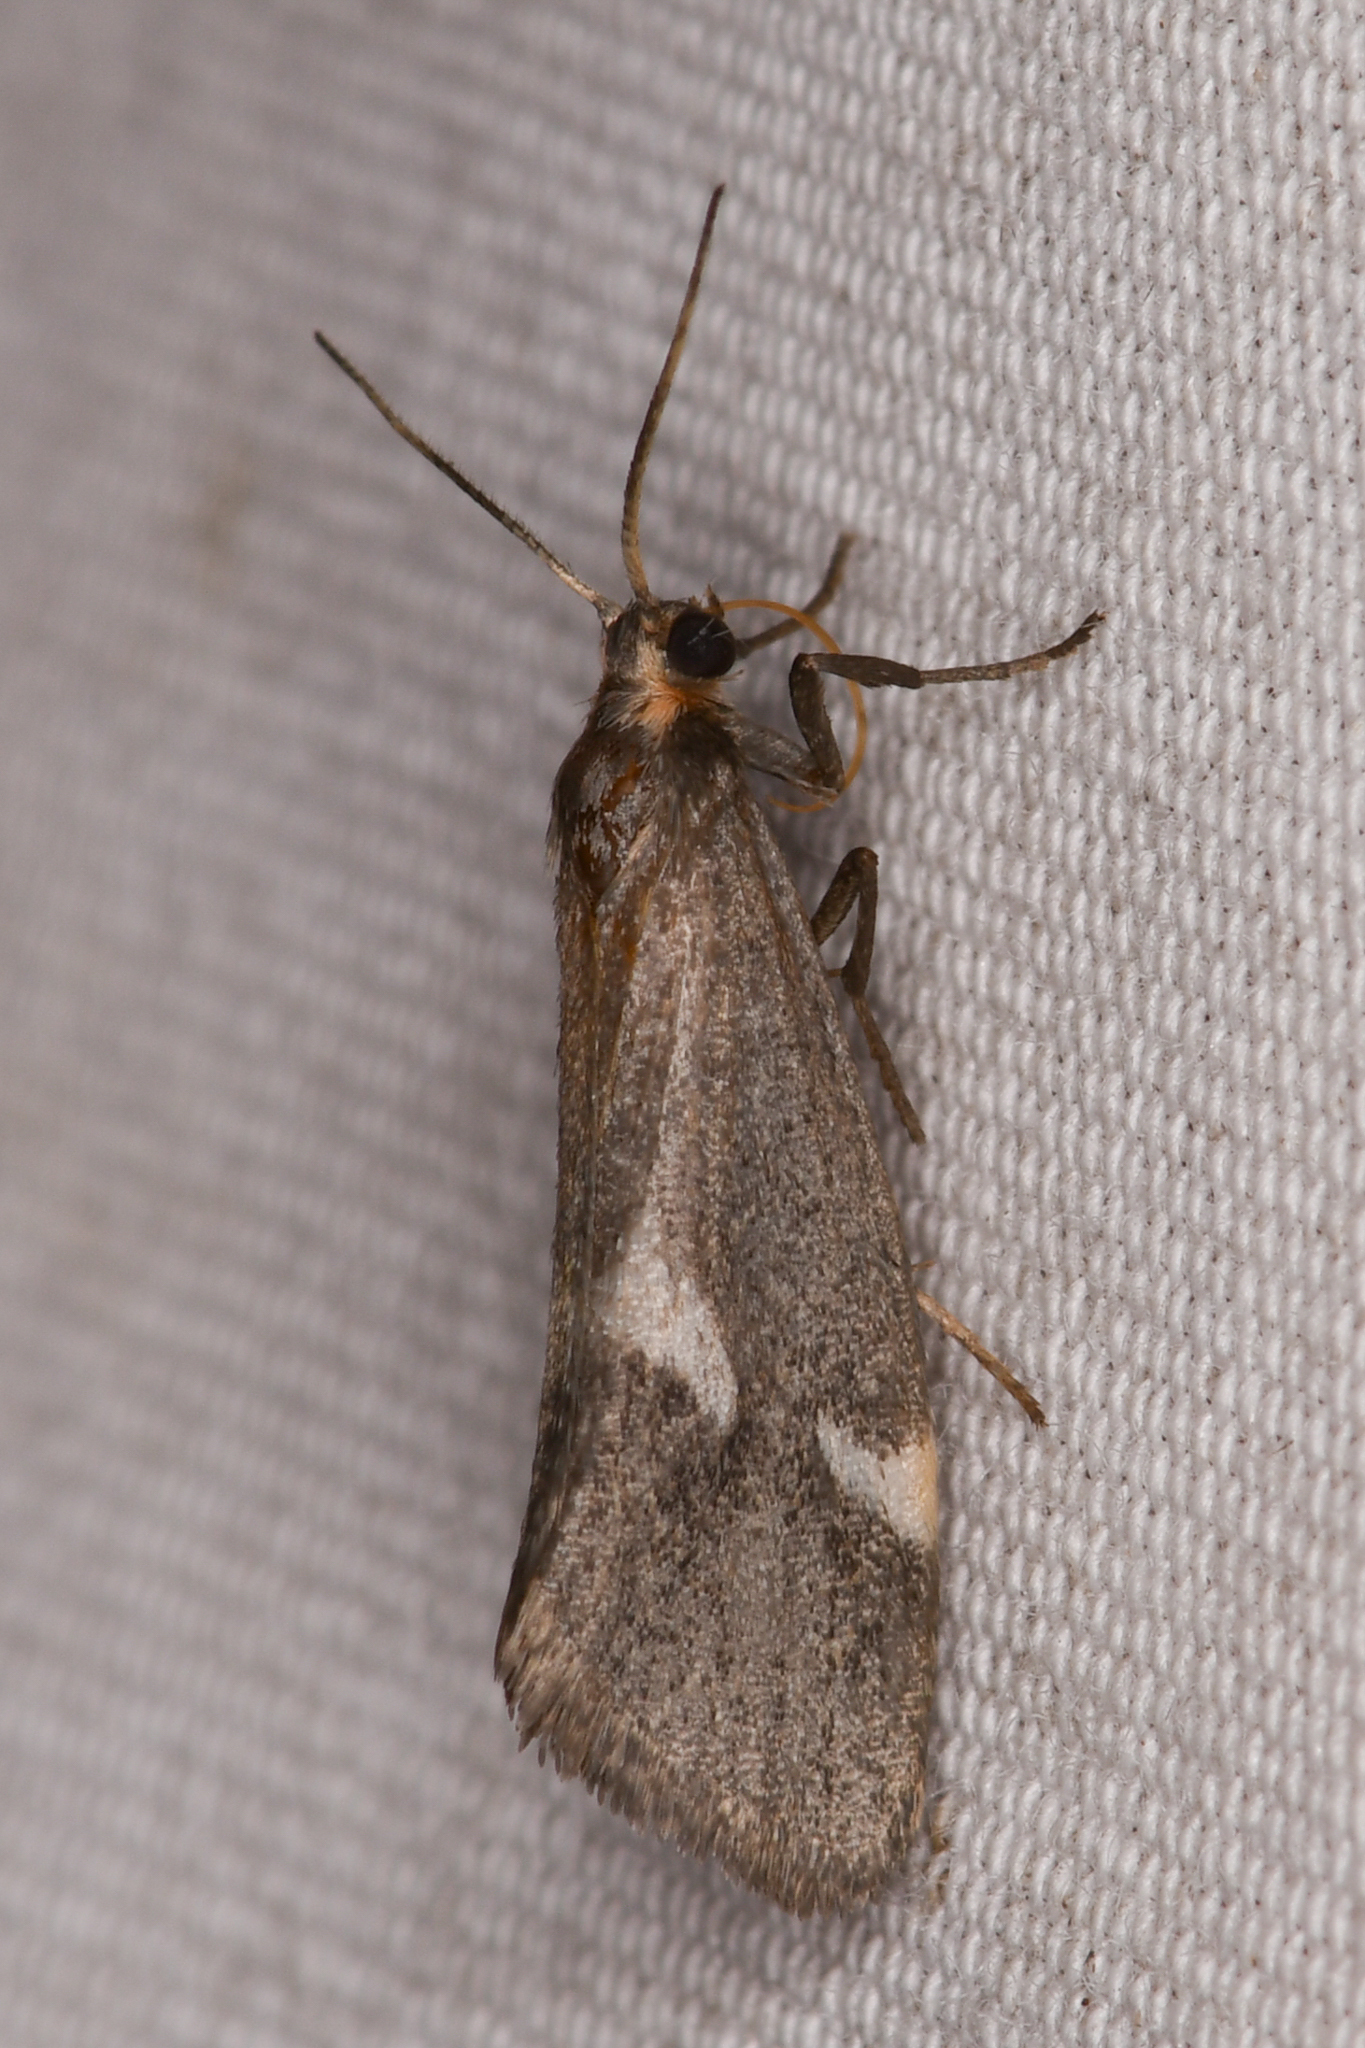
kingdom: Animalia
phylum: Arthropoda
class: Insecta
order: Lepidoptera
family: Erebidae
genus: Cisthene
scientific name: Cisthene liberomacula
